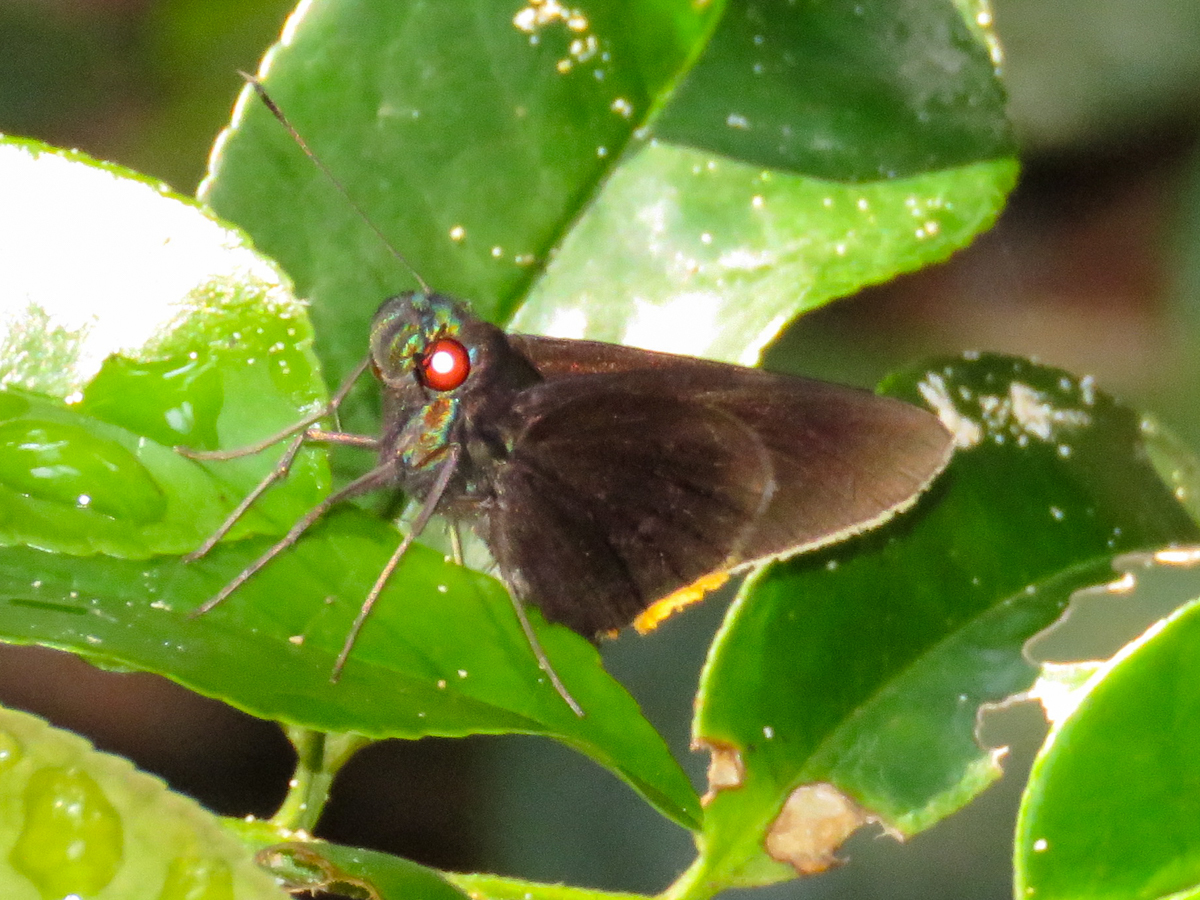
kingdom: Animalia
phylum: Arthropoda
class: Insecta
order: Lepidoptera
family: Hesperiidae
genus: Matapa
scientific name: Matapa sasivarna
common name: Black-veined redeye
